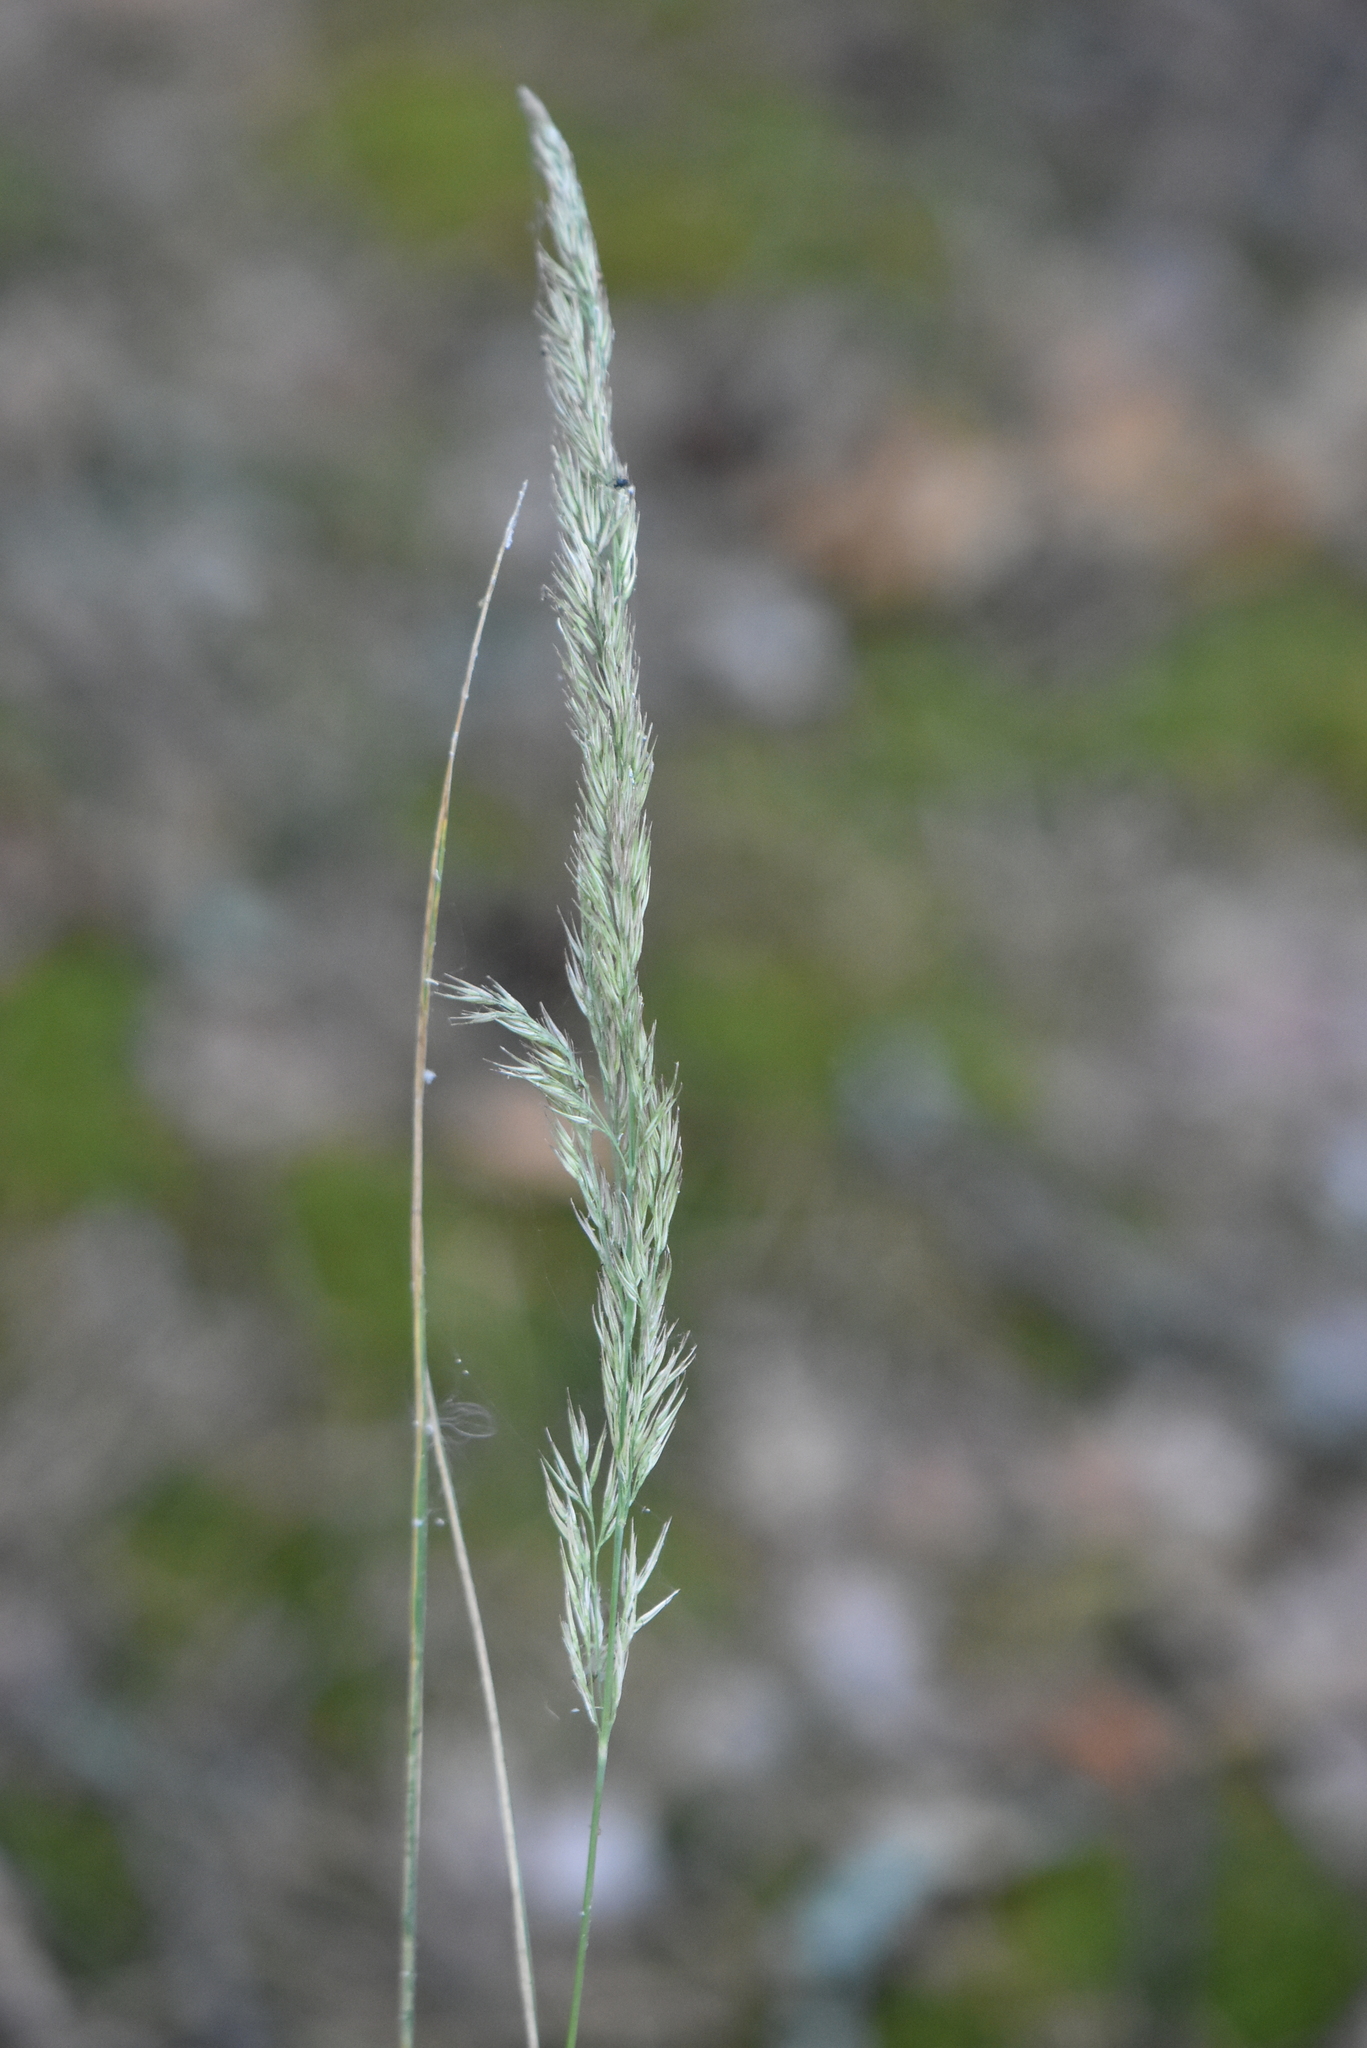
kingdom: Plantae
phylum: Tracheophyta
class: Liliopsida
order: Poales
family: Poaceae
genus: Calamagrostis
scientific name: Calamagrostis epigejos
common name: Wood small-reed
